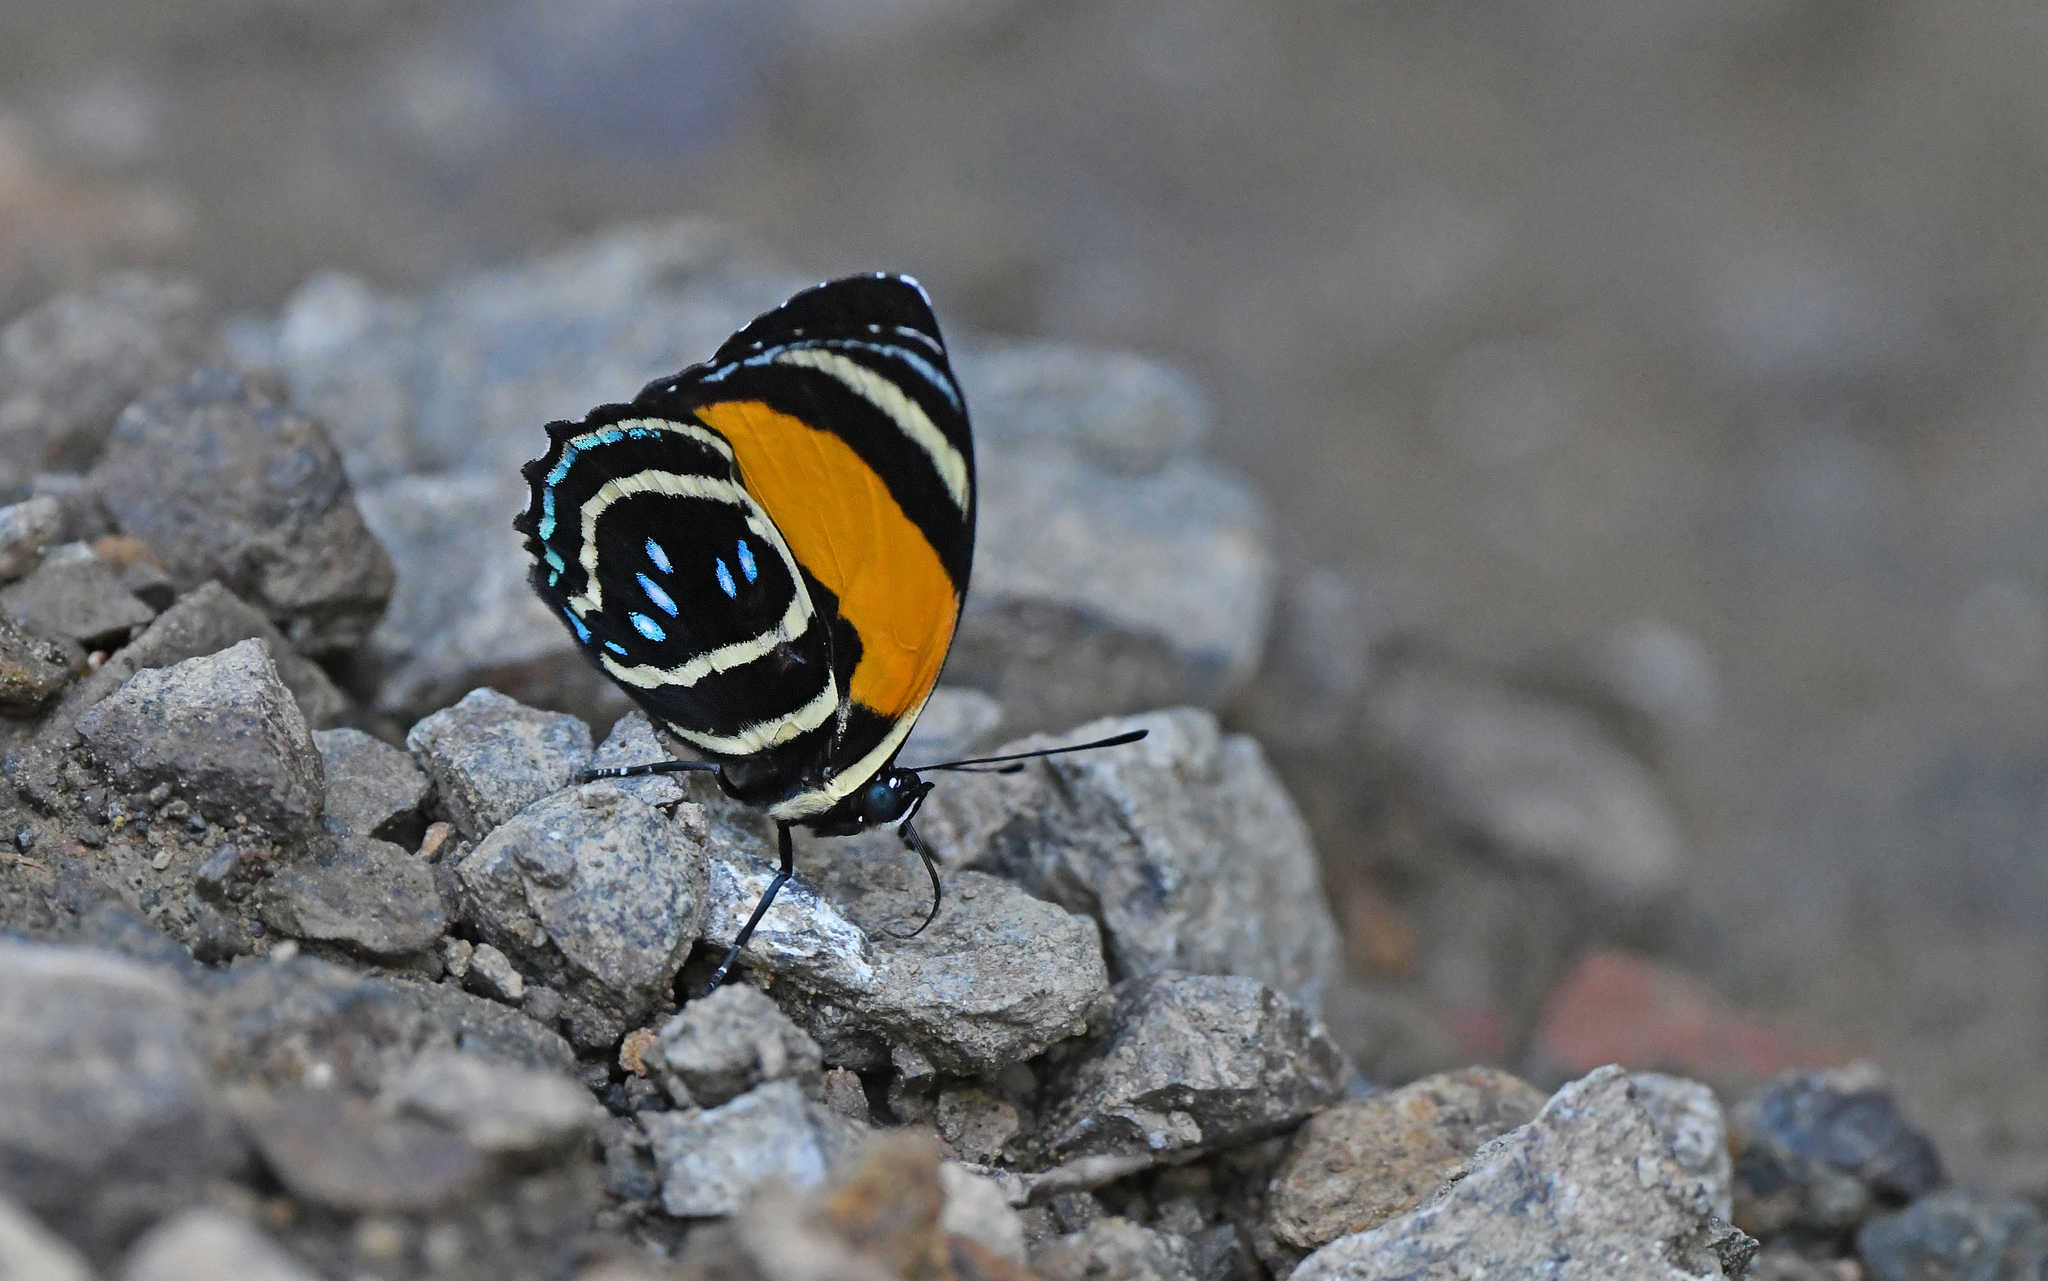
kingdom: Animalia
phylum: Arthropoda
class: Insecta
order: Lepidoptera
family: Nymphalidae
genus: Catagramma
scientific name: Catagramma Callicore lyca
